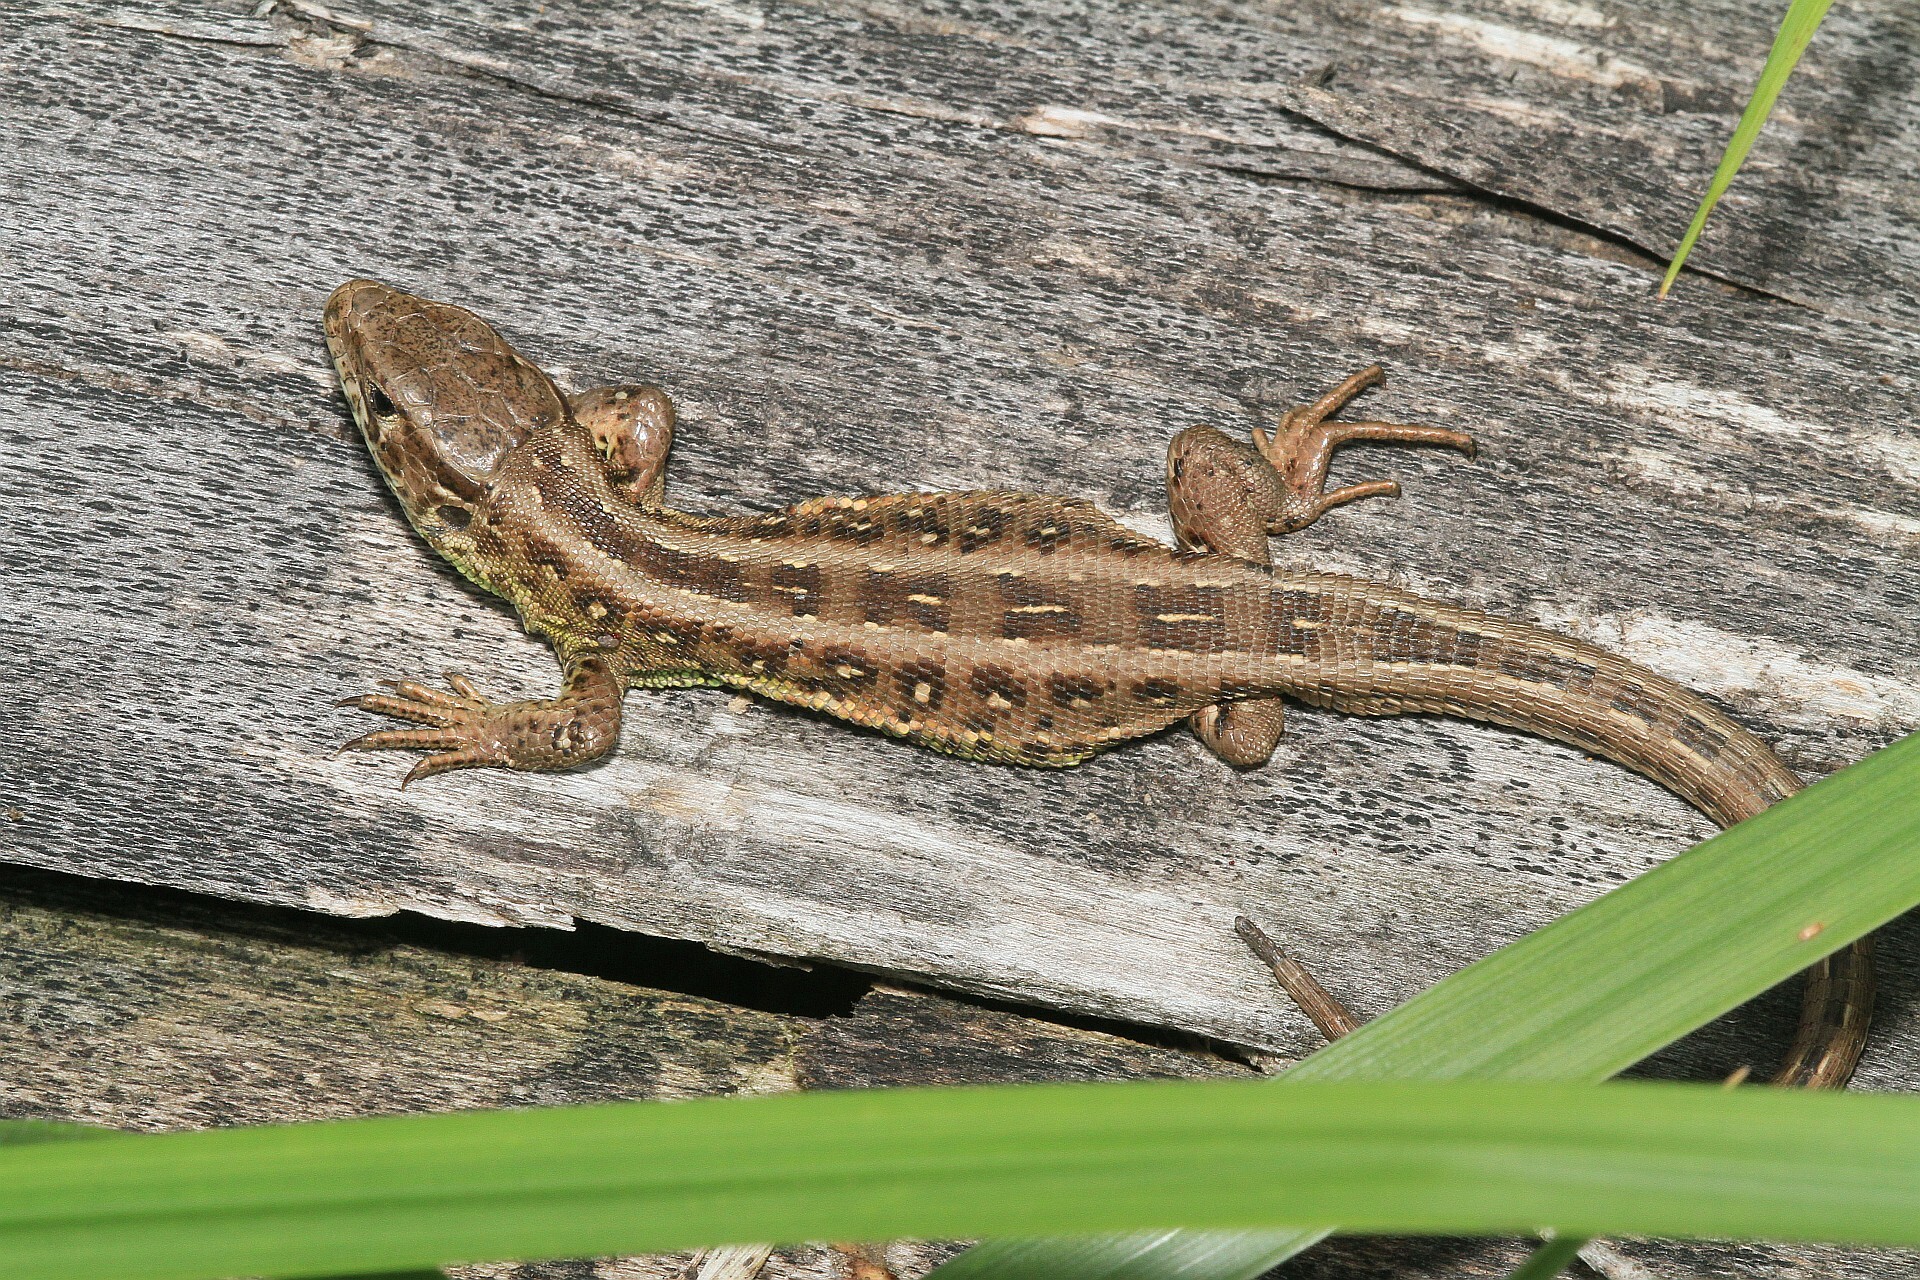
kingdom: Animalia
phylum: Chordata
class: Squamata
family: Lacertidae
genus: Lacerta
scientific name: Lacerta agilis
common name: Sand lizard
